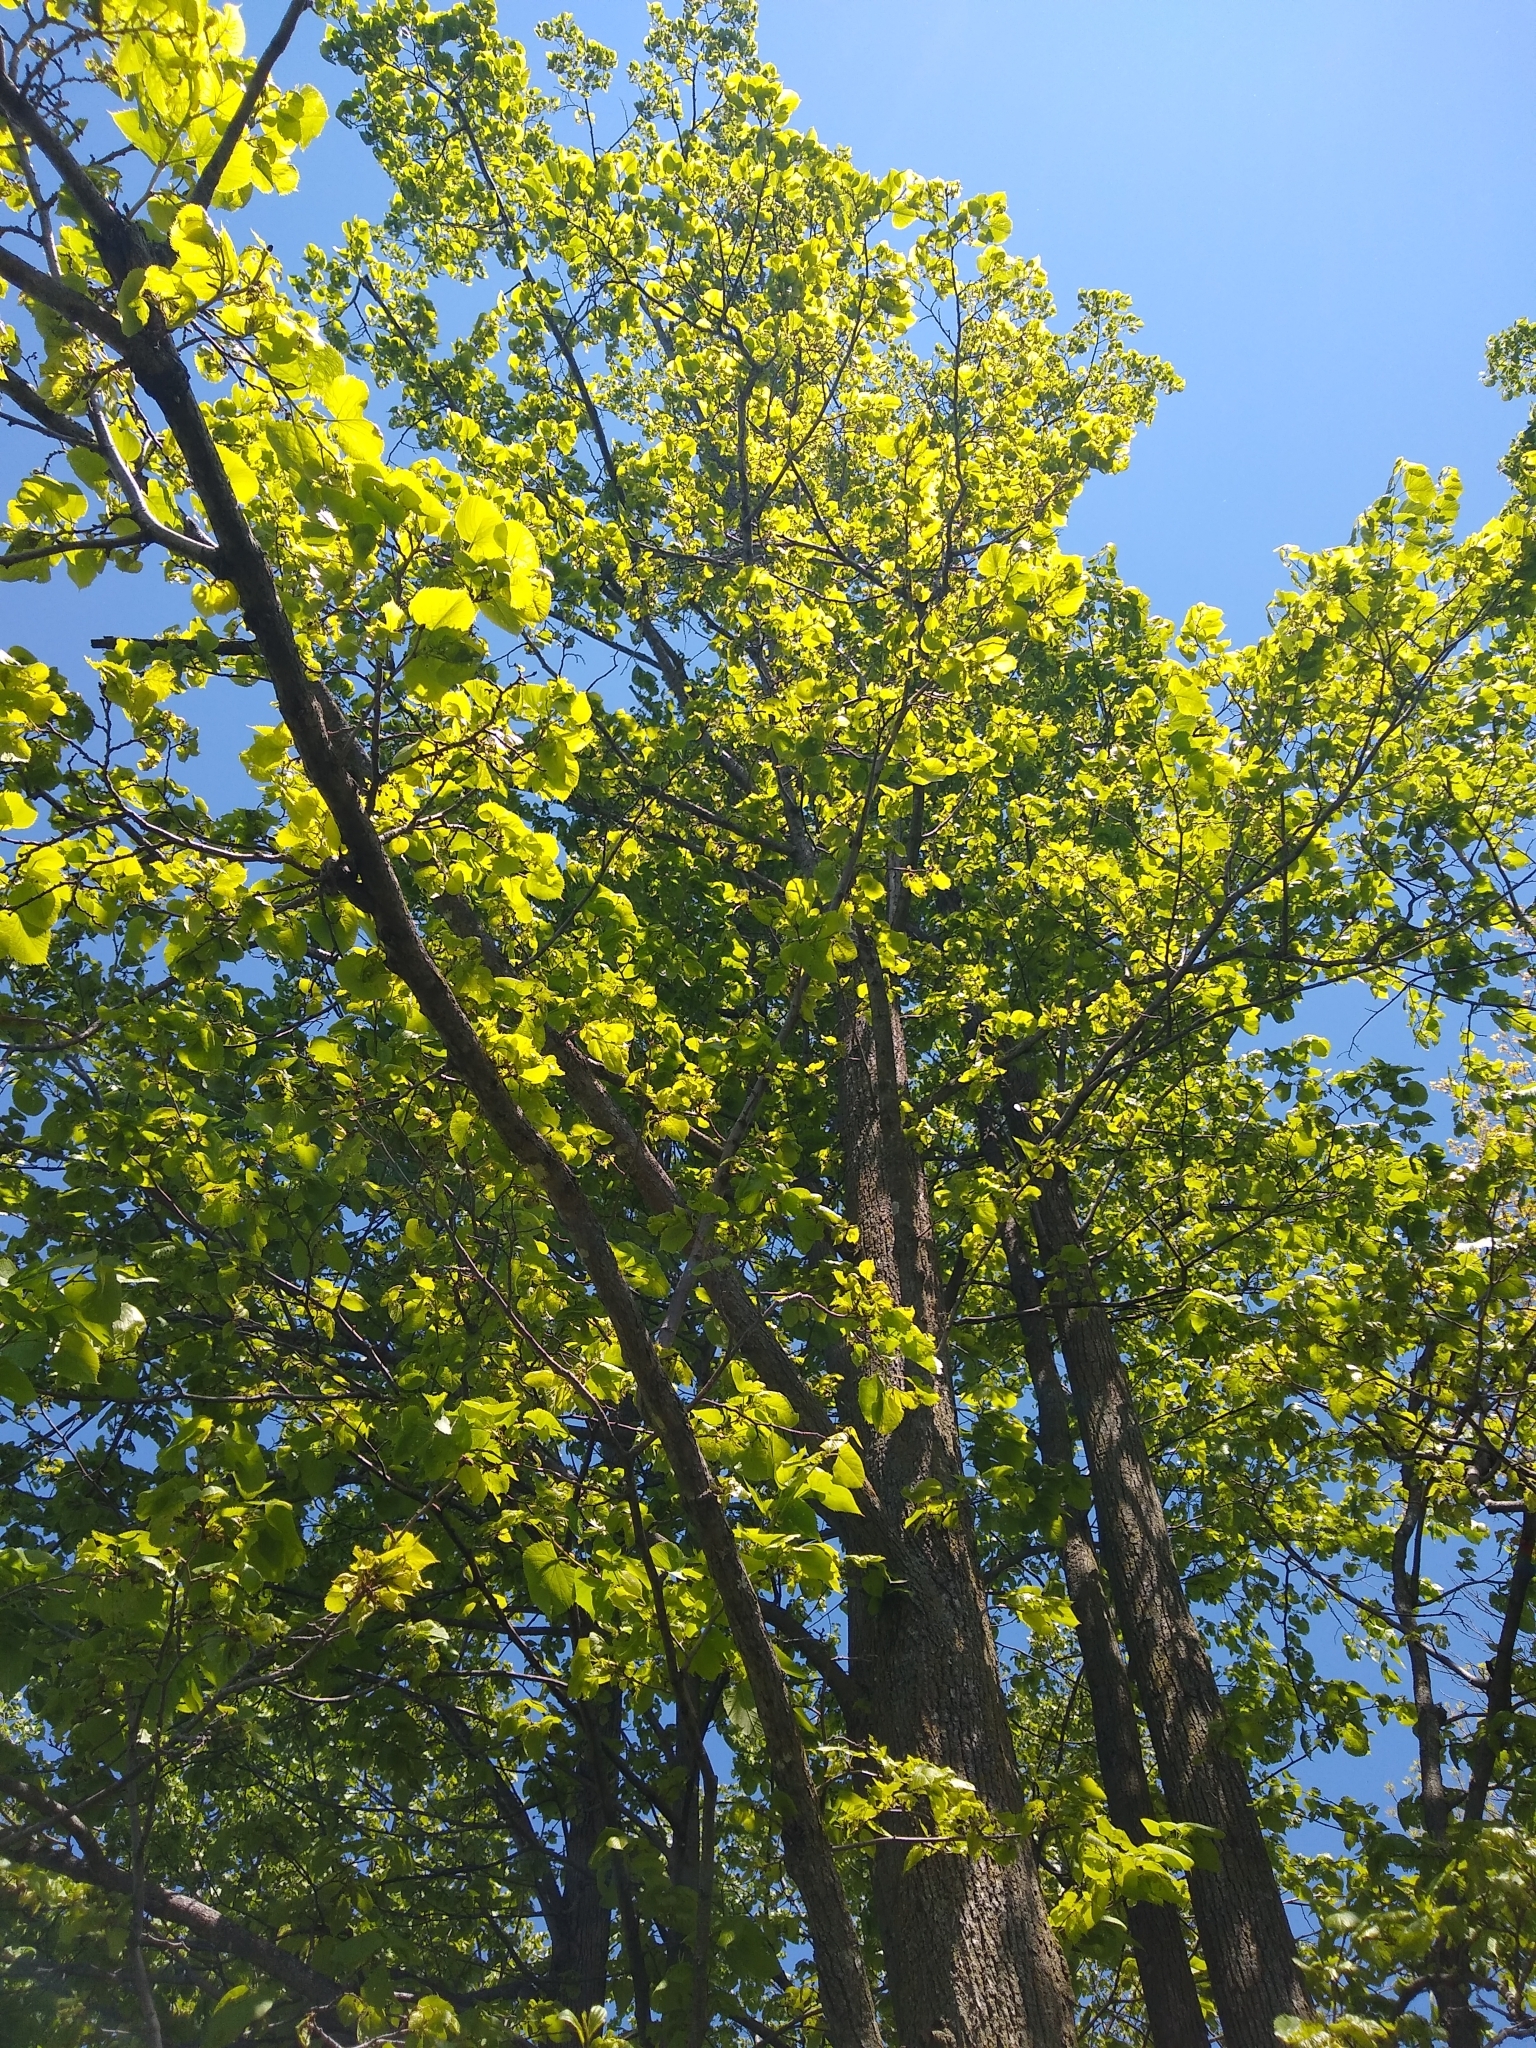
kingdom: Plantae
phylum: Tracheophyta
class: Magnoliopsida
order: Malvales
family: Malvaceae
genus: Tilia
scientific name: Tilia americana
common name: Basswood
